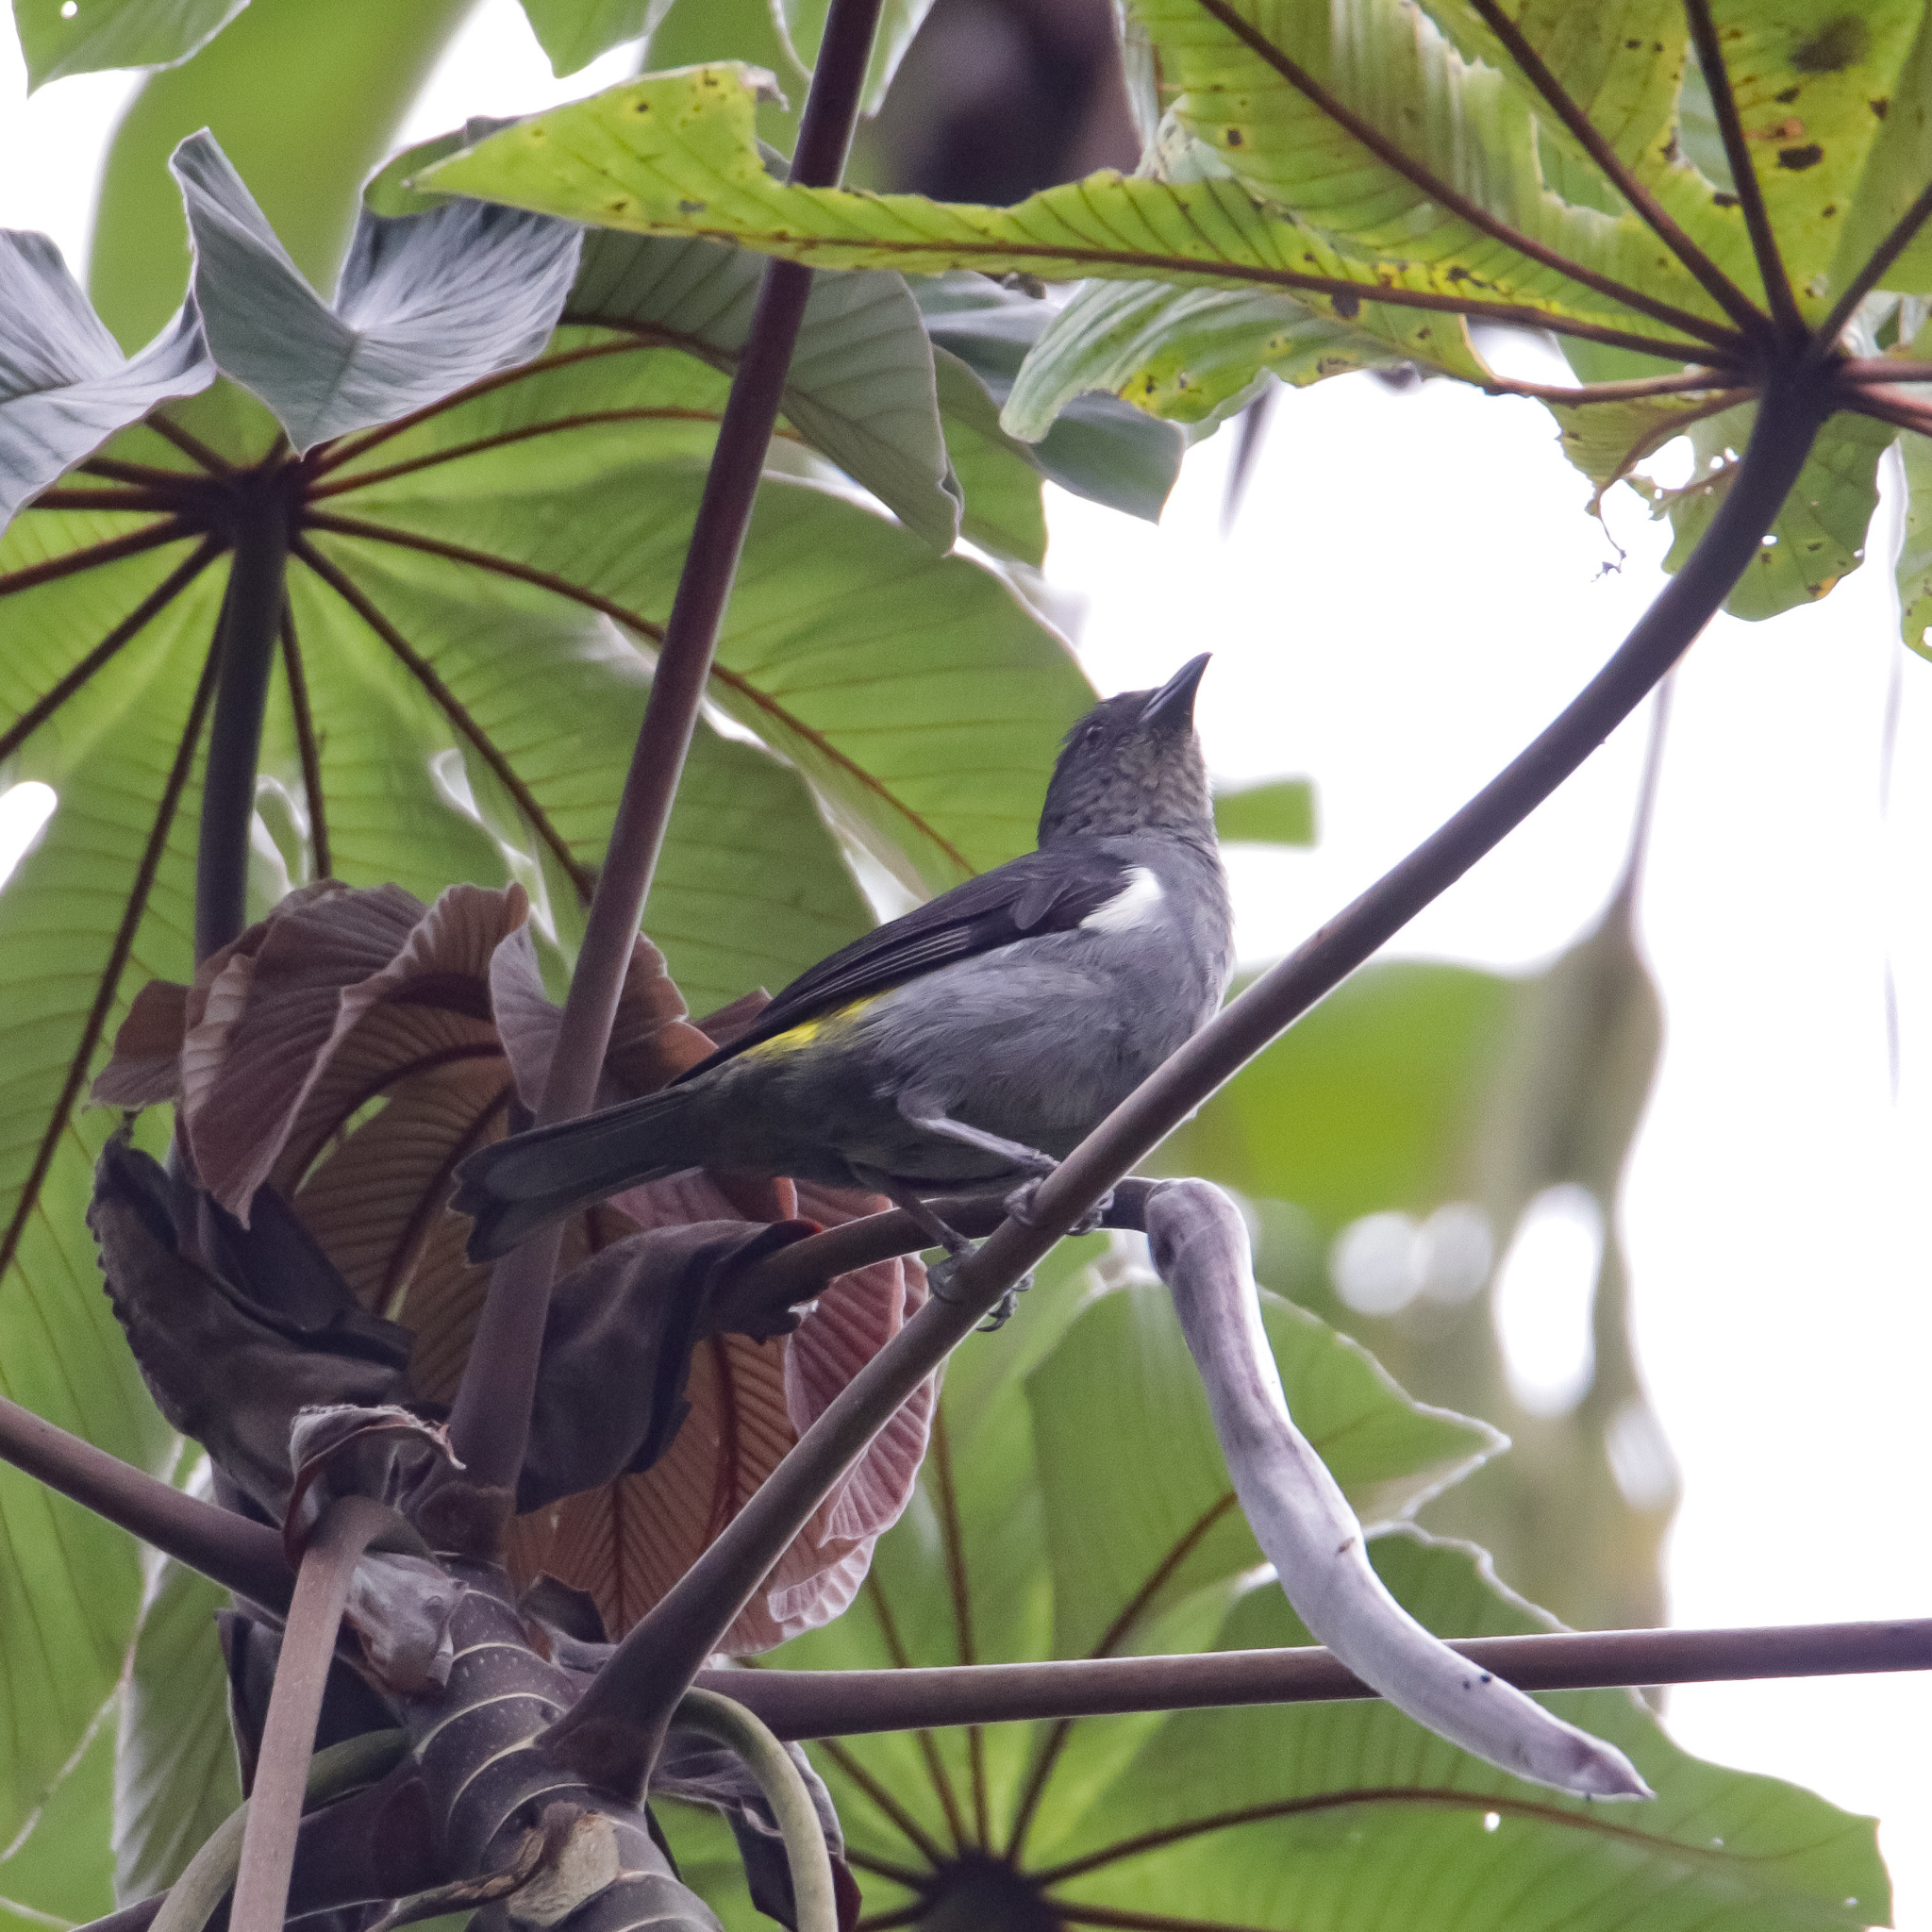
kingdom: Animalia
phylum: Chordata
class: Aves
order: Passeriformes
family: Thraupidae
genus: Heterospingus
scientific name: Heterospingus rubrifrons
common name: Sulphur-rumped tanager
